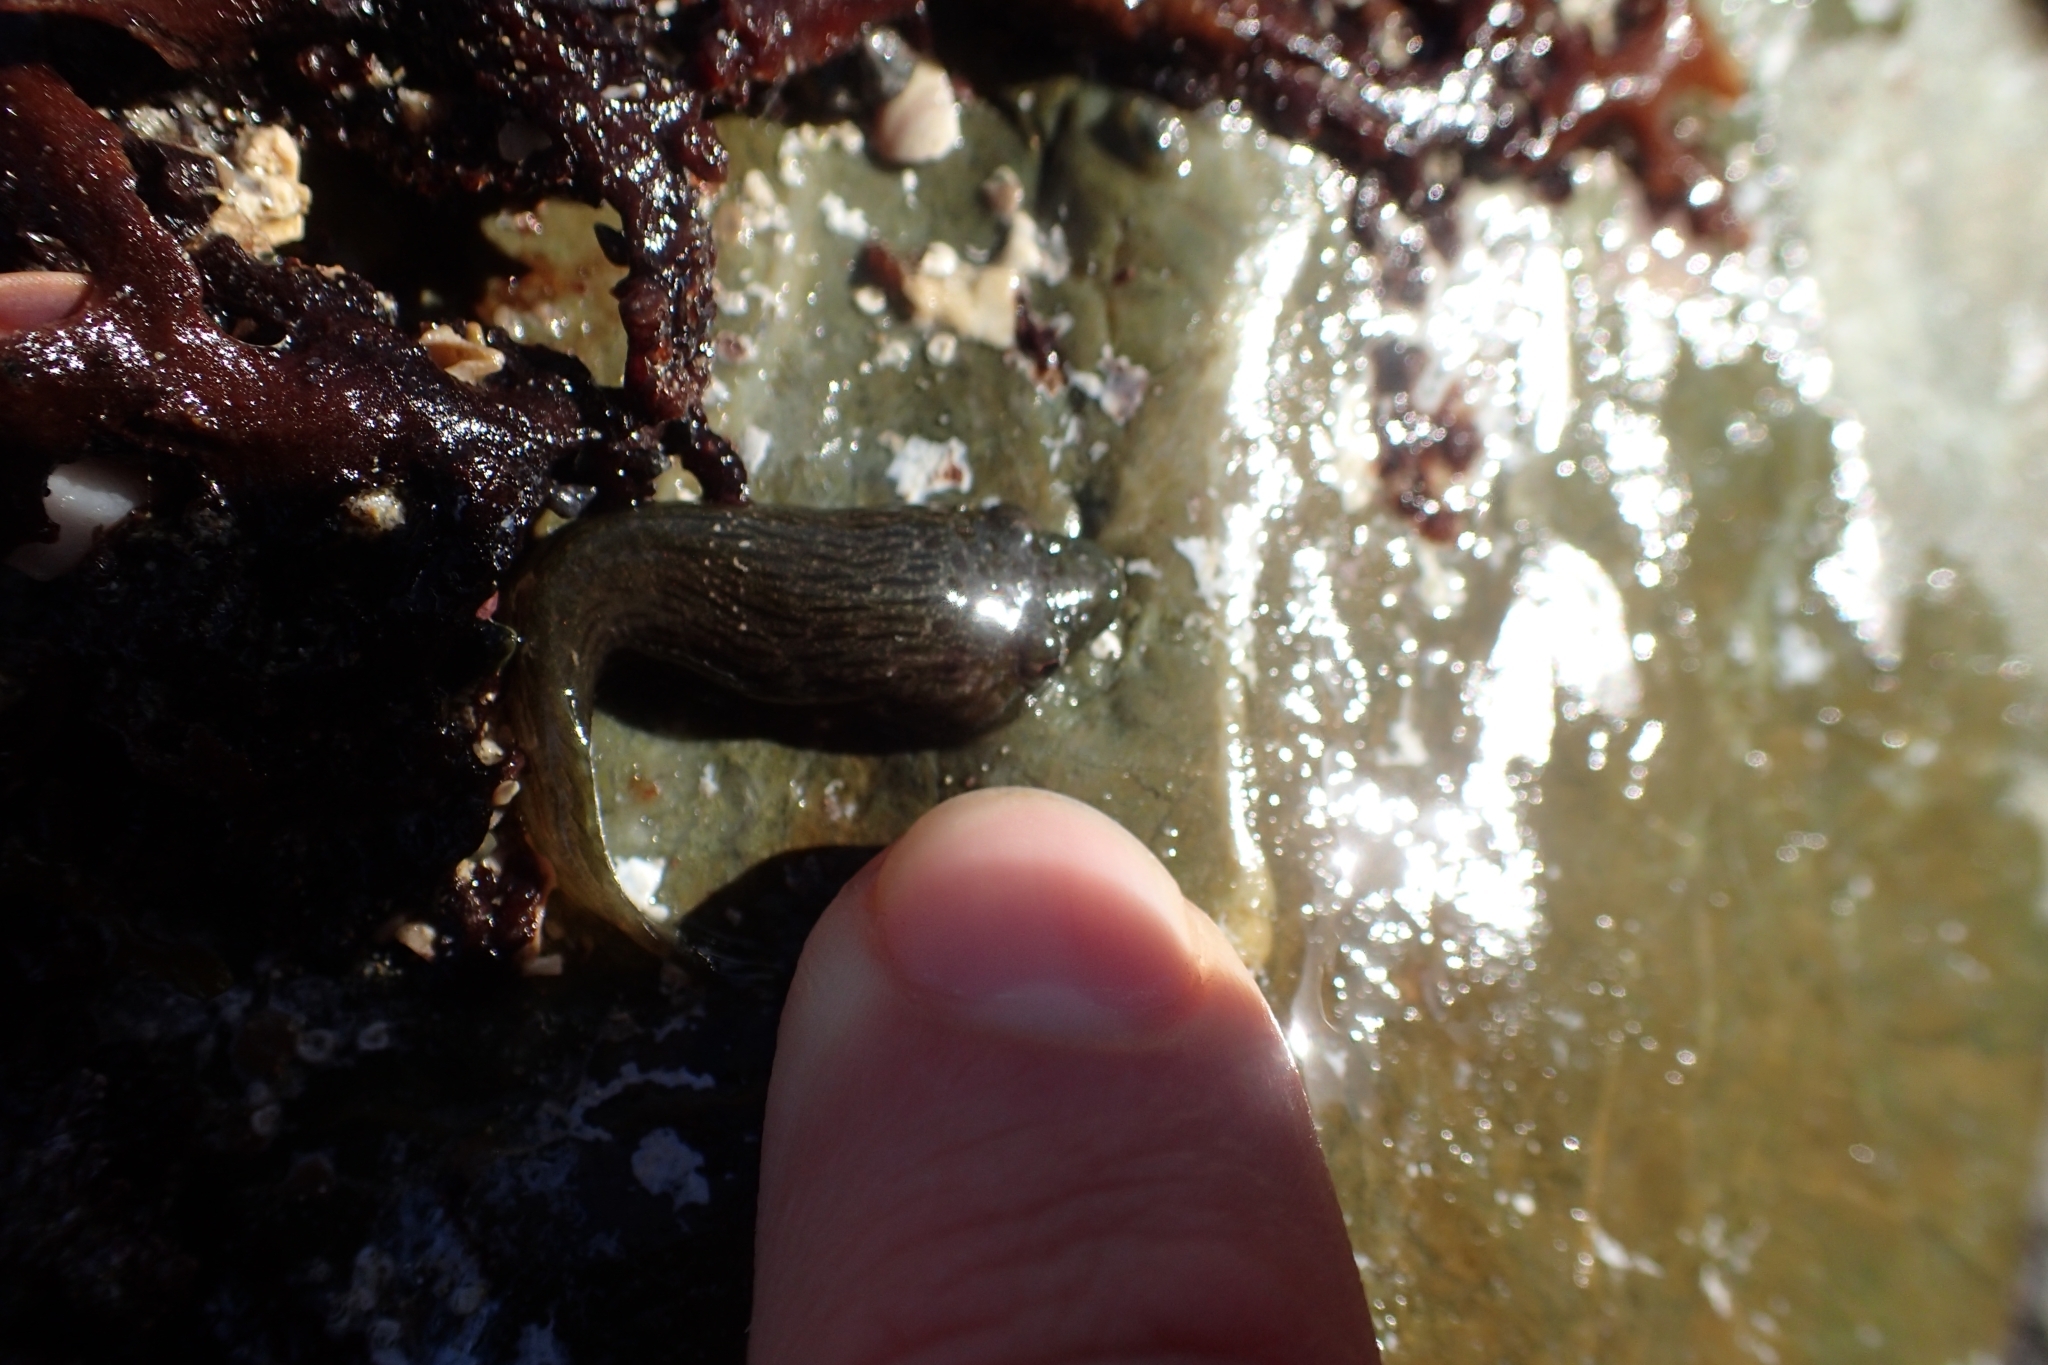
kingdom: Animalia
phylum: Chordata
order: Gobiesociformes
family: Gobiesocidae
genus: Trachelochismus
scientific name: Trachelochismus pinnulatus
